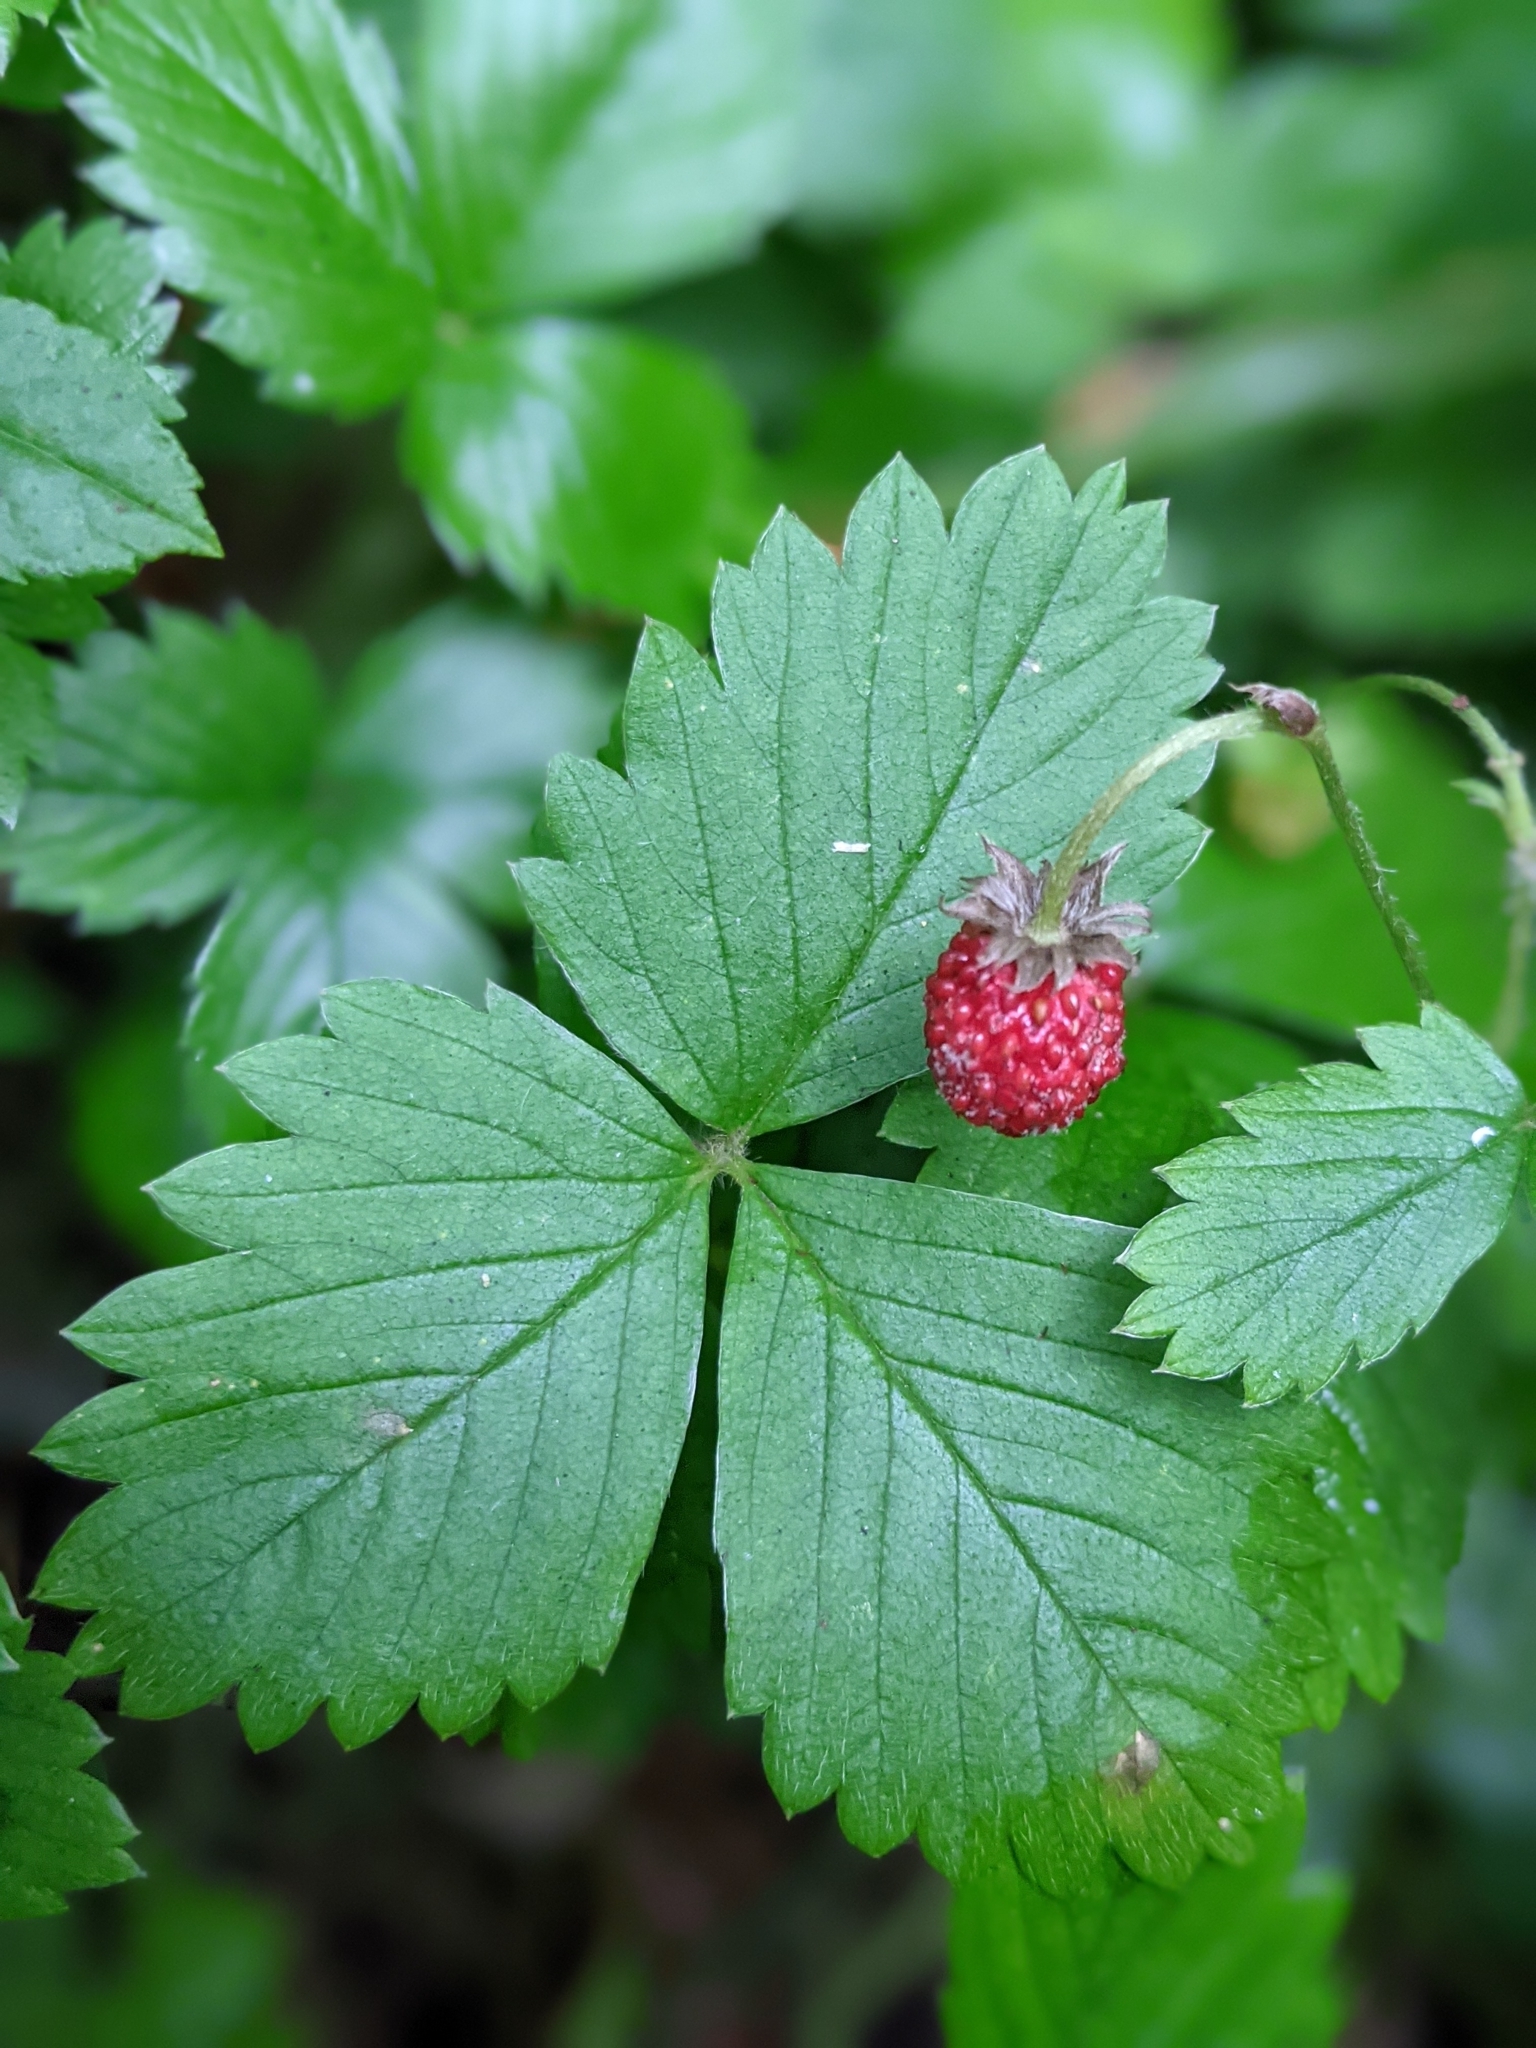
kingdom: Plantae
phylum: Tracheophyta
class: Magnoliopsida
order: Rosales
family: Rosaceae
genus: Fragaria
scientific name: Fragaria vesca
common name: Wild strawberry
